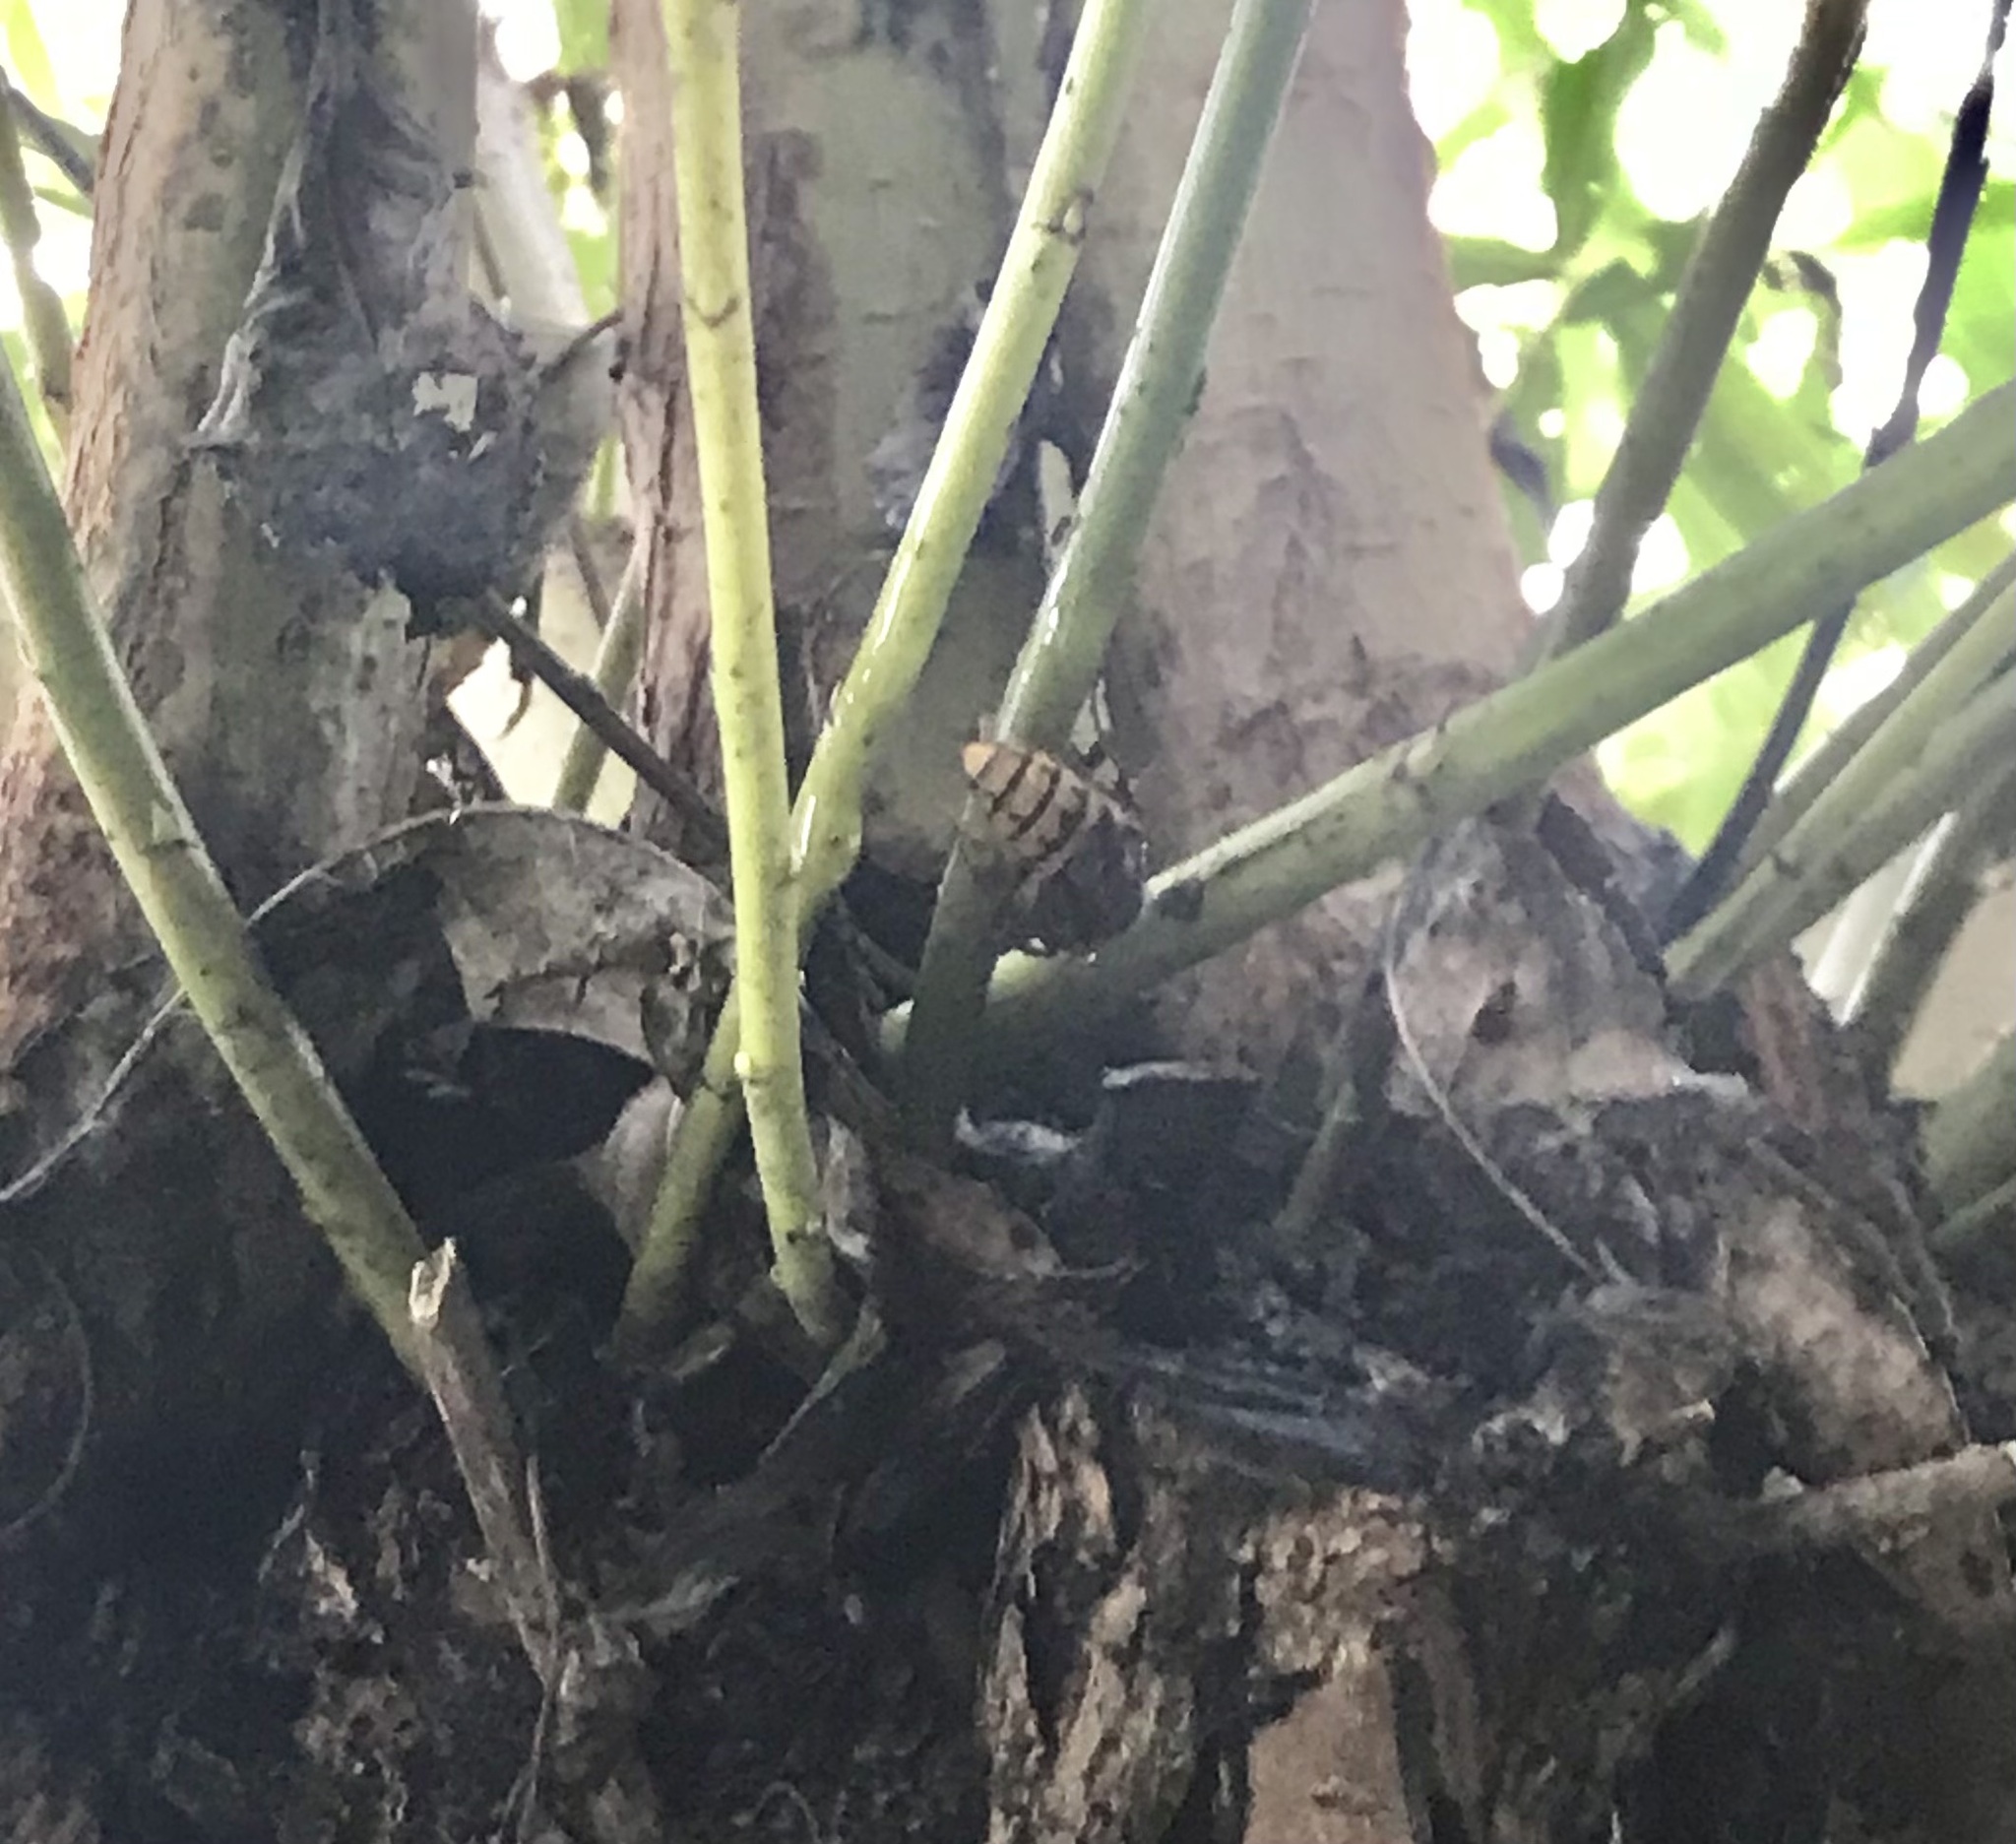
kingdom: Animalia
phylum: Arthropoda
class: Insecta
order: Hymenoptera
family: Vespidae
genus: Vespa
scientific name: Vespa crabro
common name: Hornet
